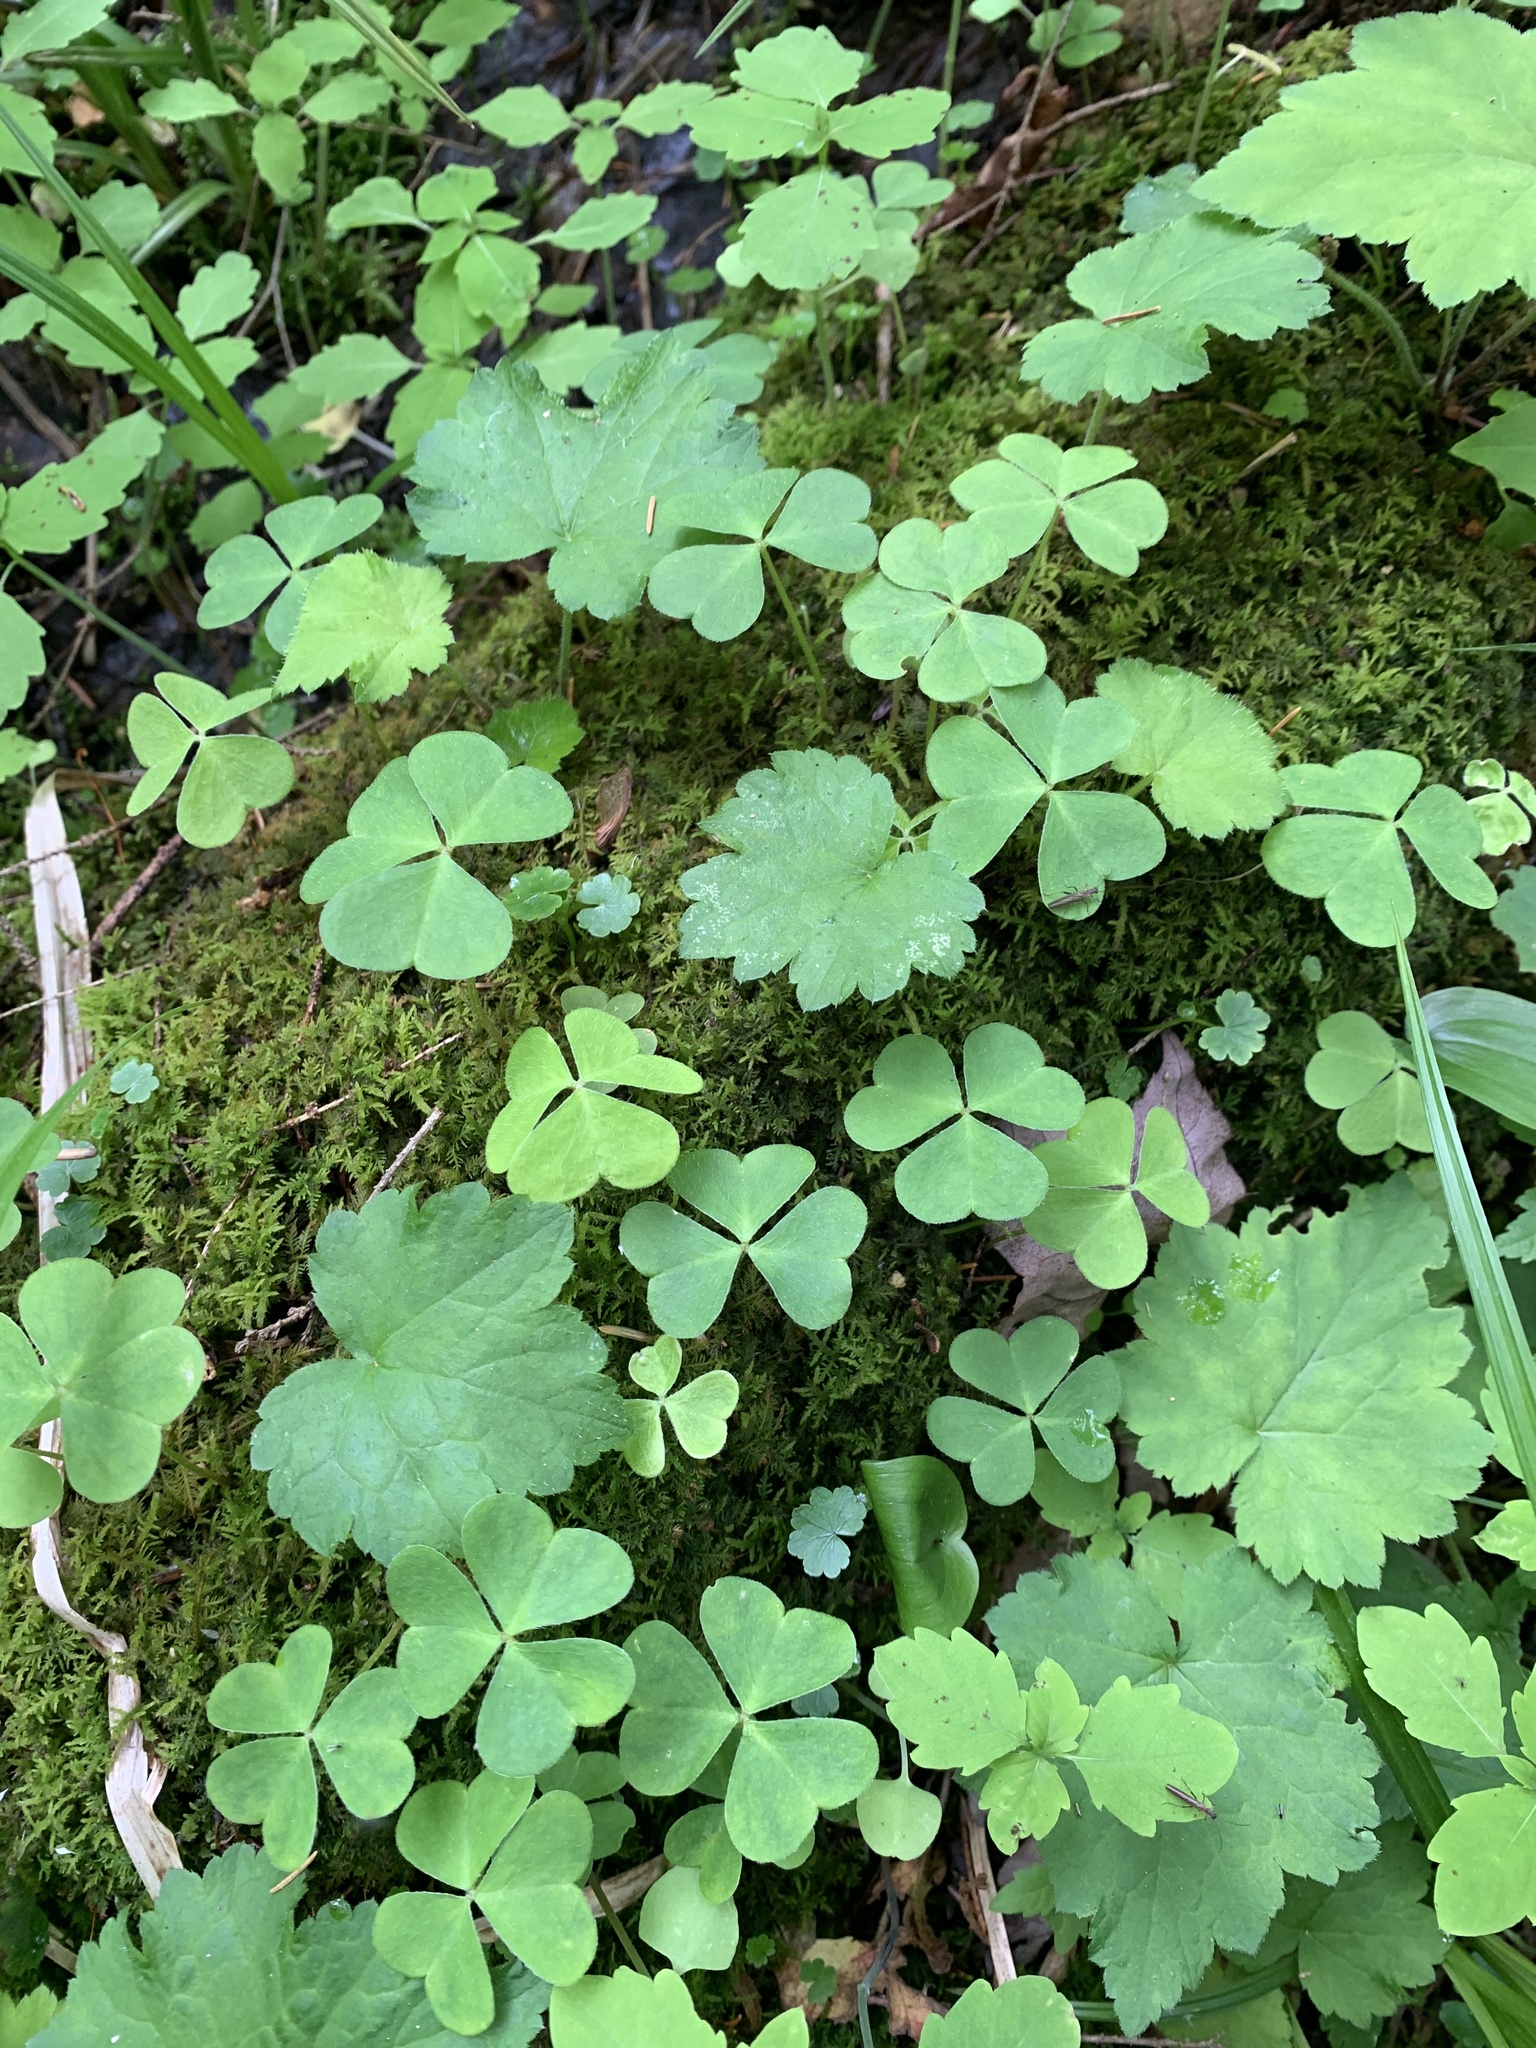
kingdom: Plantae
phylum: Tracheophyta
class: Magnoliopsida
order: Oxalidales
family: Oxalidaceae
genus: Oxalis
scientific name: Oxalis montana
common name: American wood-sorrel
